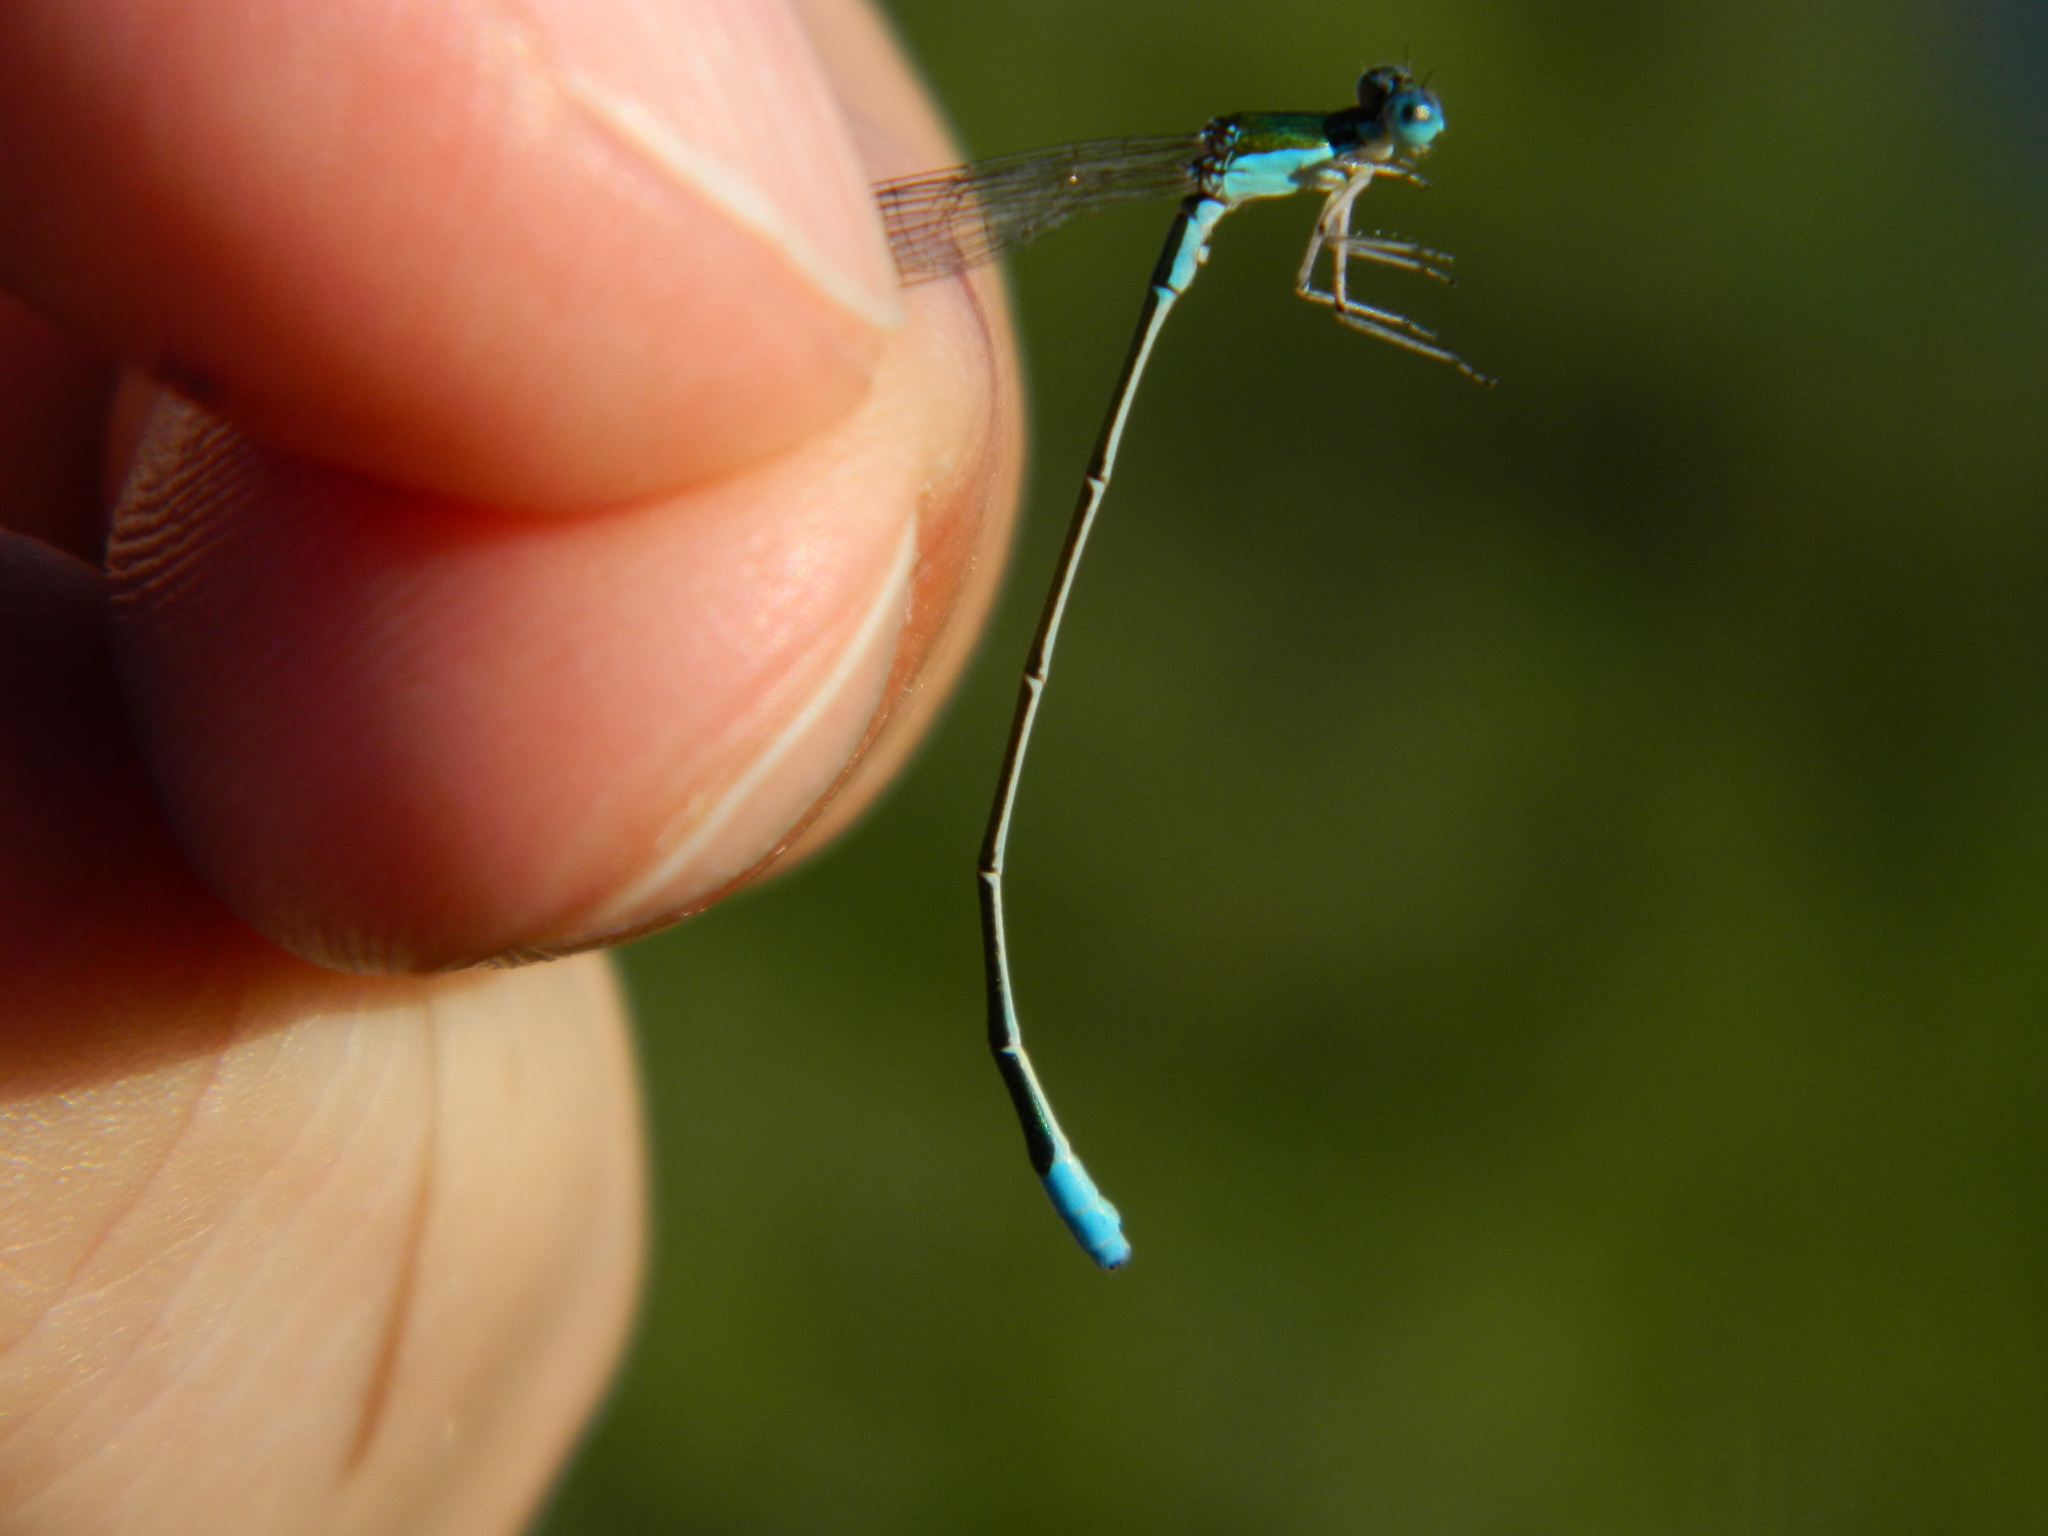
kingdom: Animalia
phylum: Arthropoda
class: Insecta
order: Odonata
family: Coenagrionidae
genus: Nehalennia
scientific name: Nehalennia gracilis
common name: Sphagnum sprite
